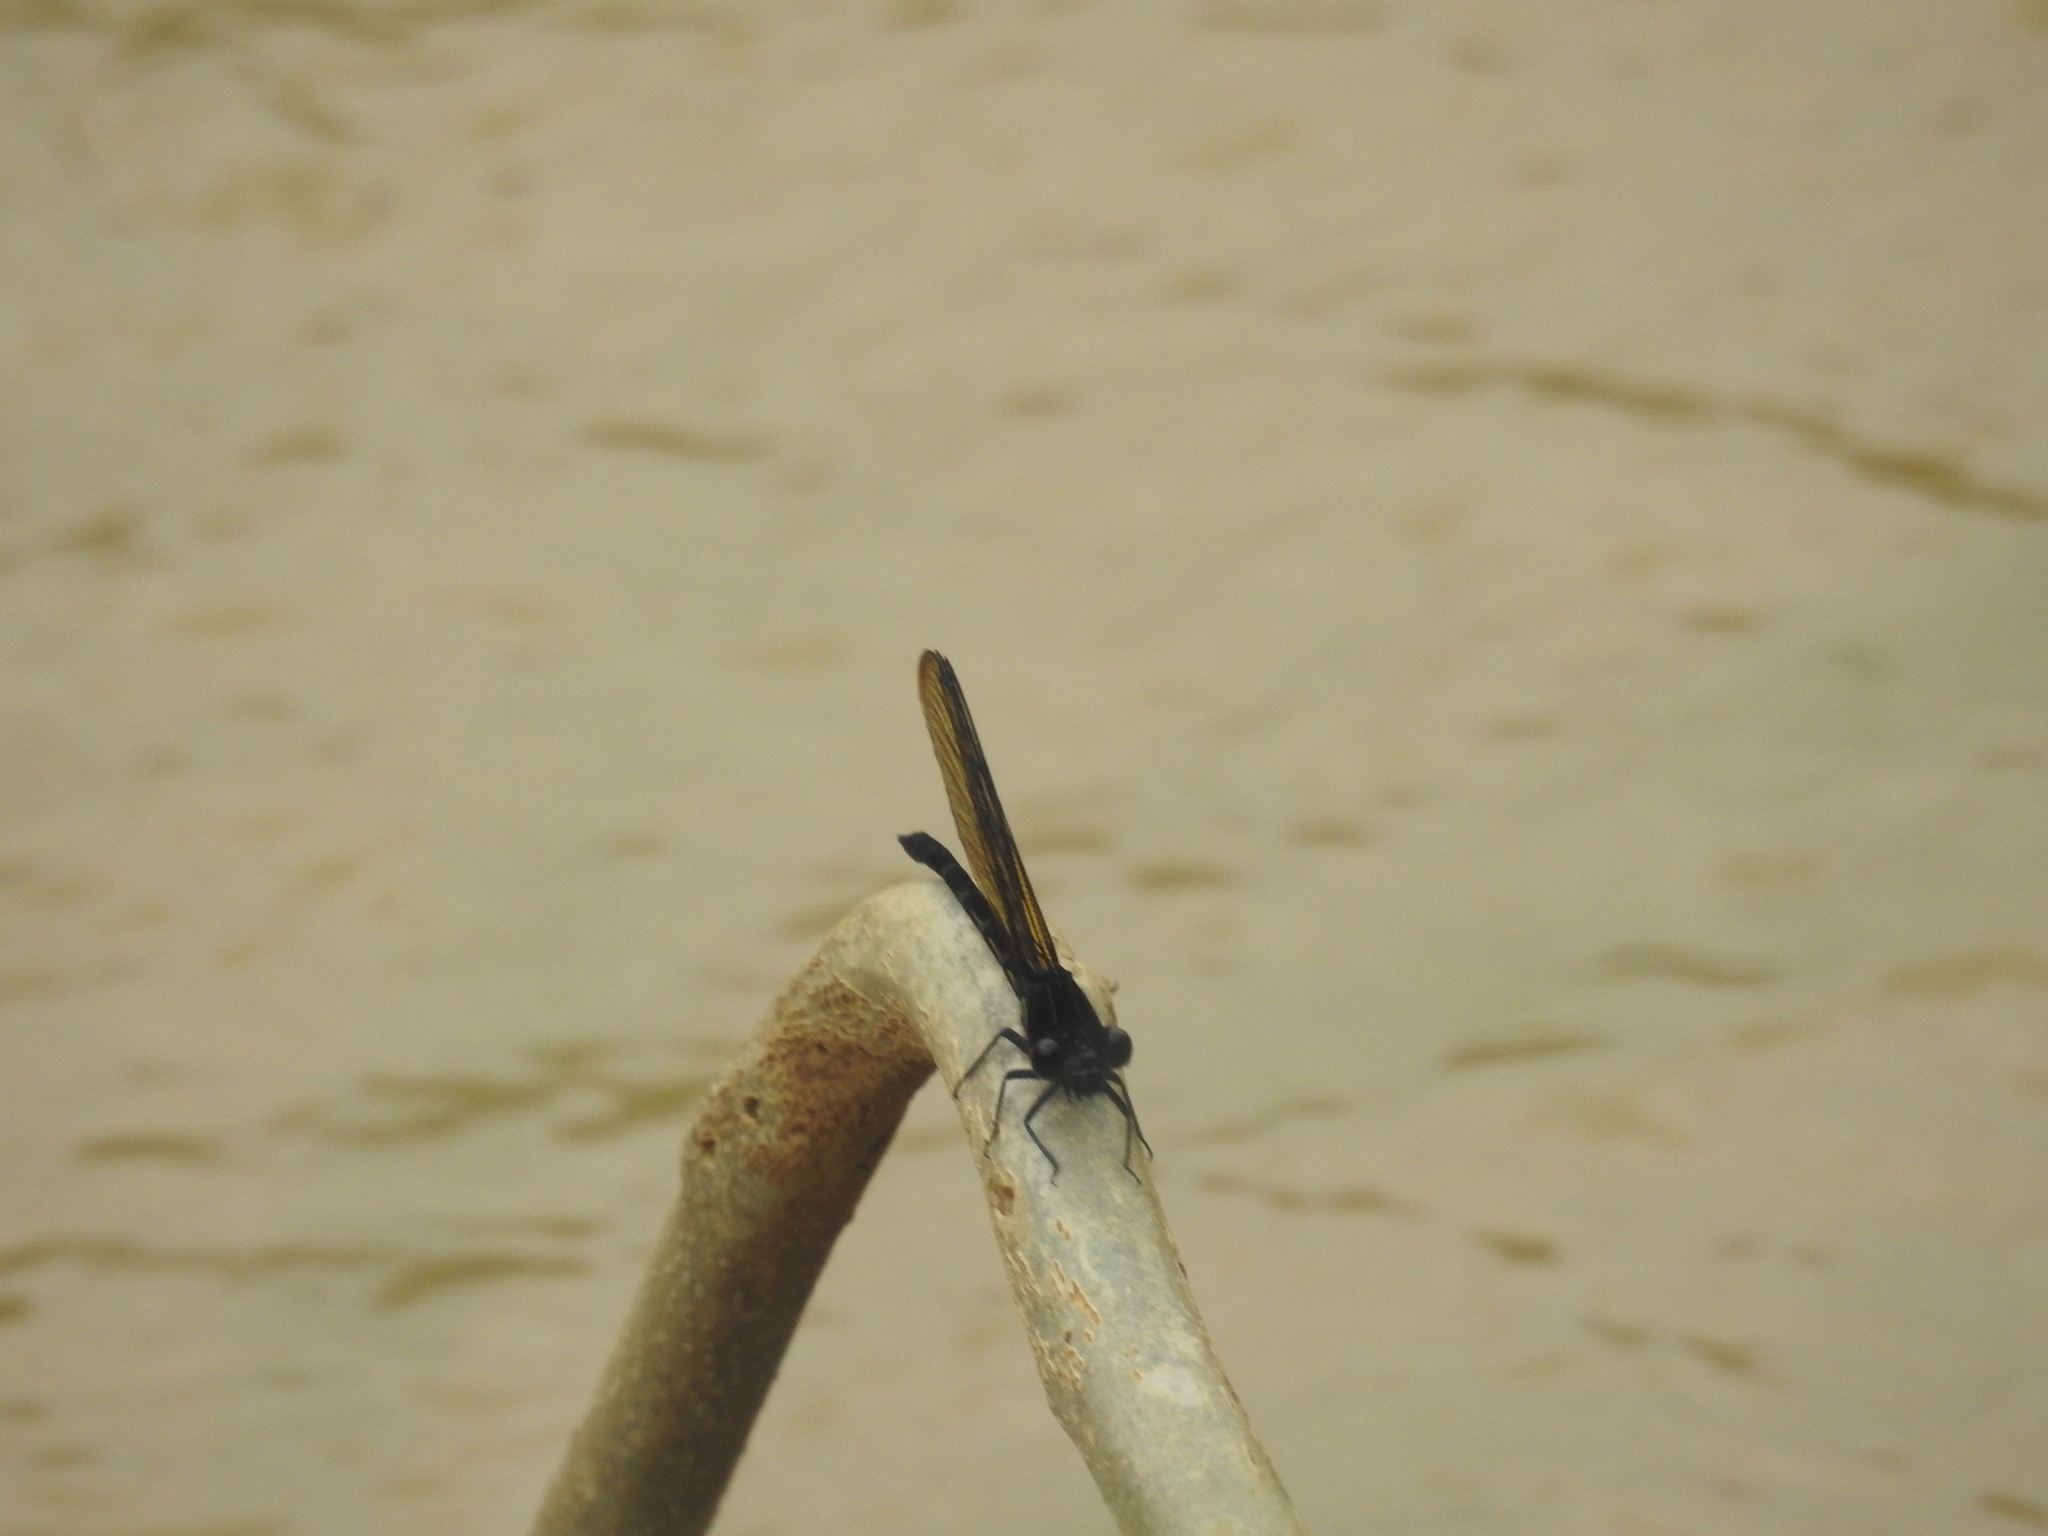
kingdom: Animalia
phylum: Arthropoda
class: Insecta
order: Odonata
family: Euphaeidae
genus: Dysphaea
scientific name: Dysphaea ethela
